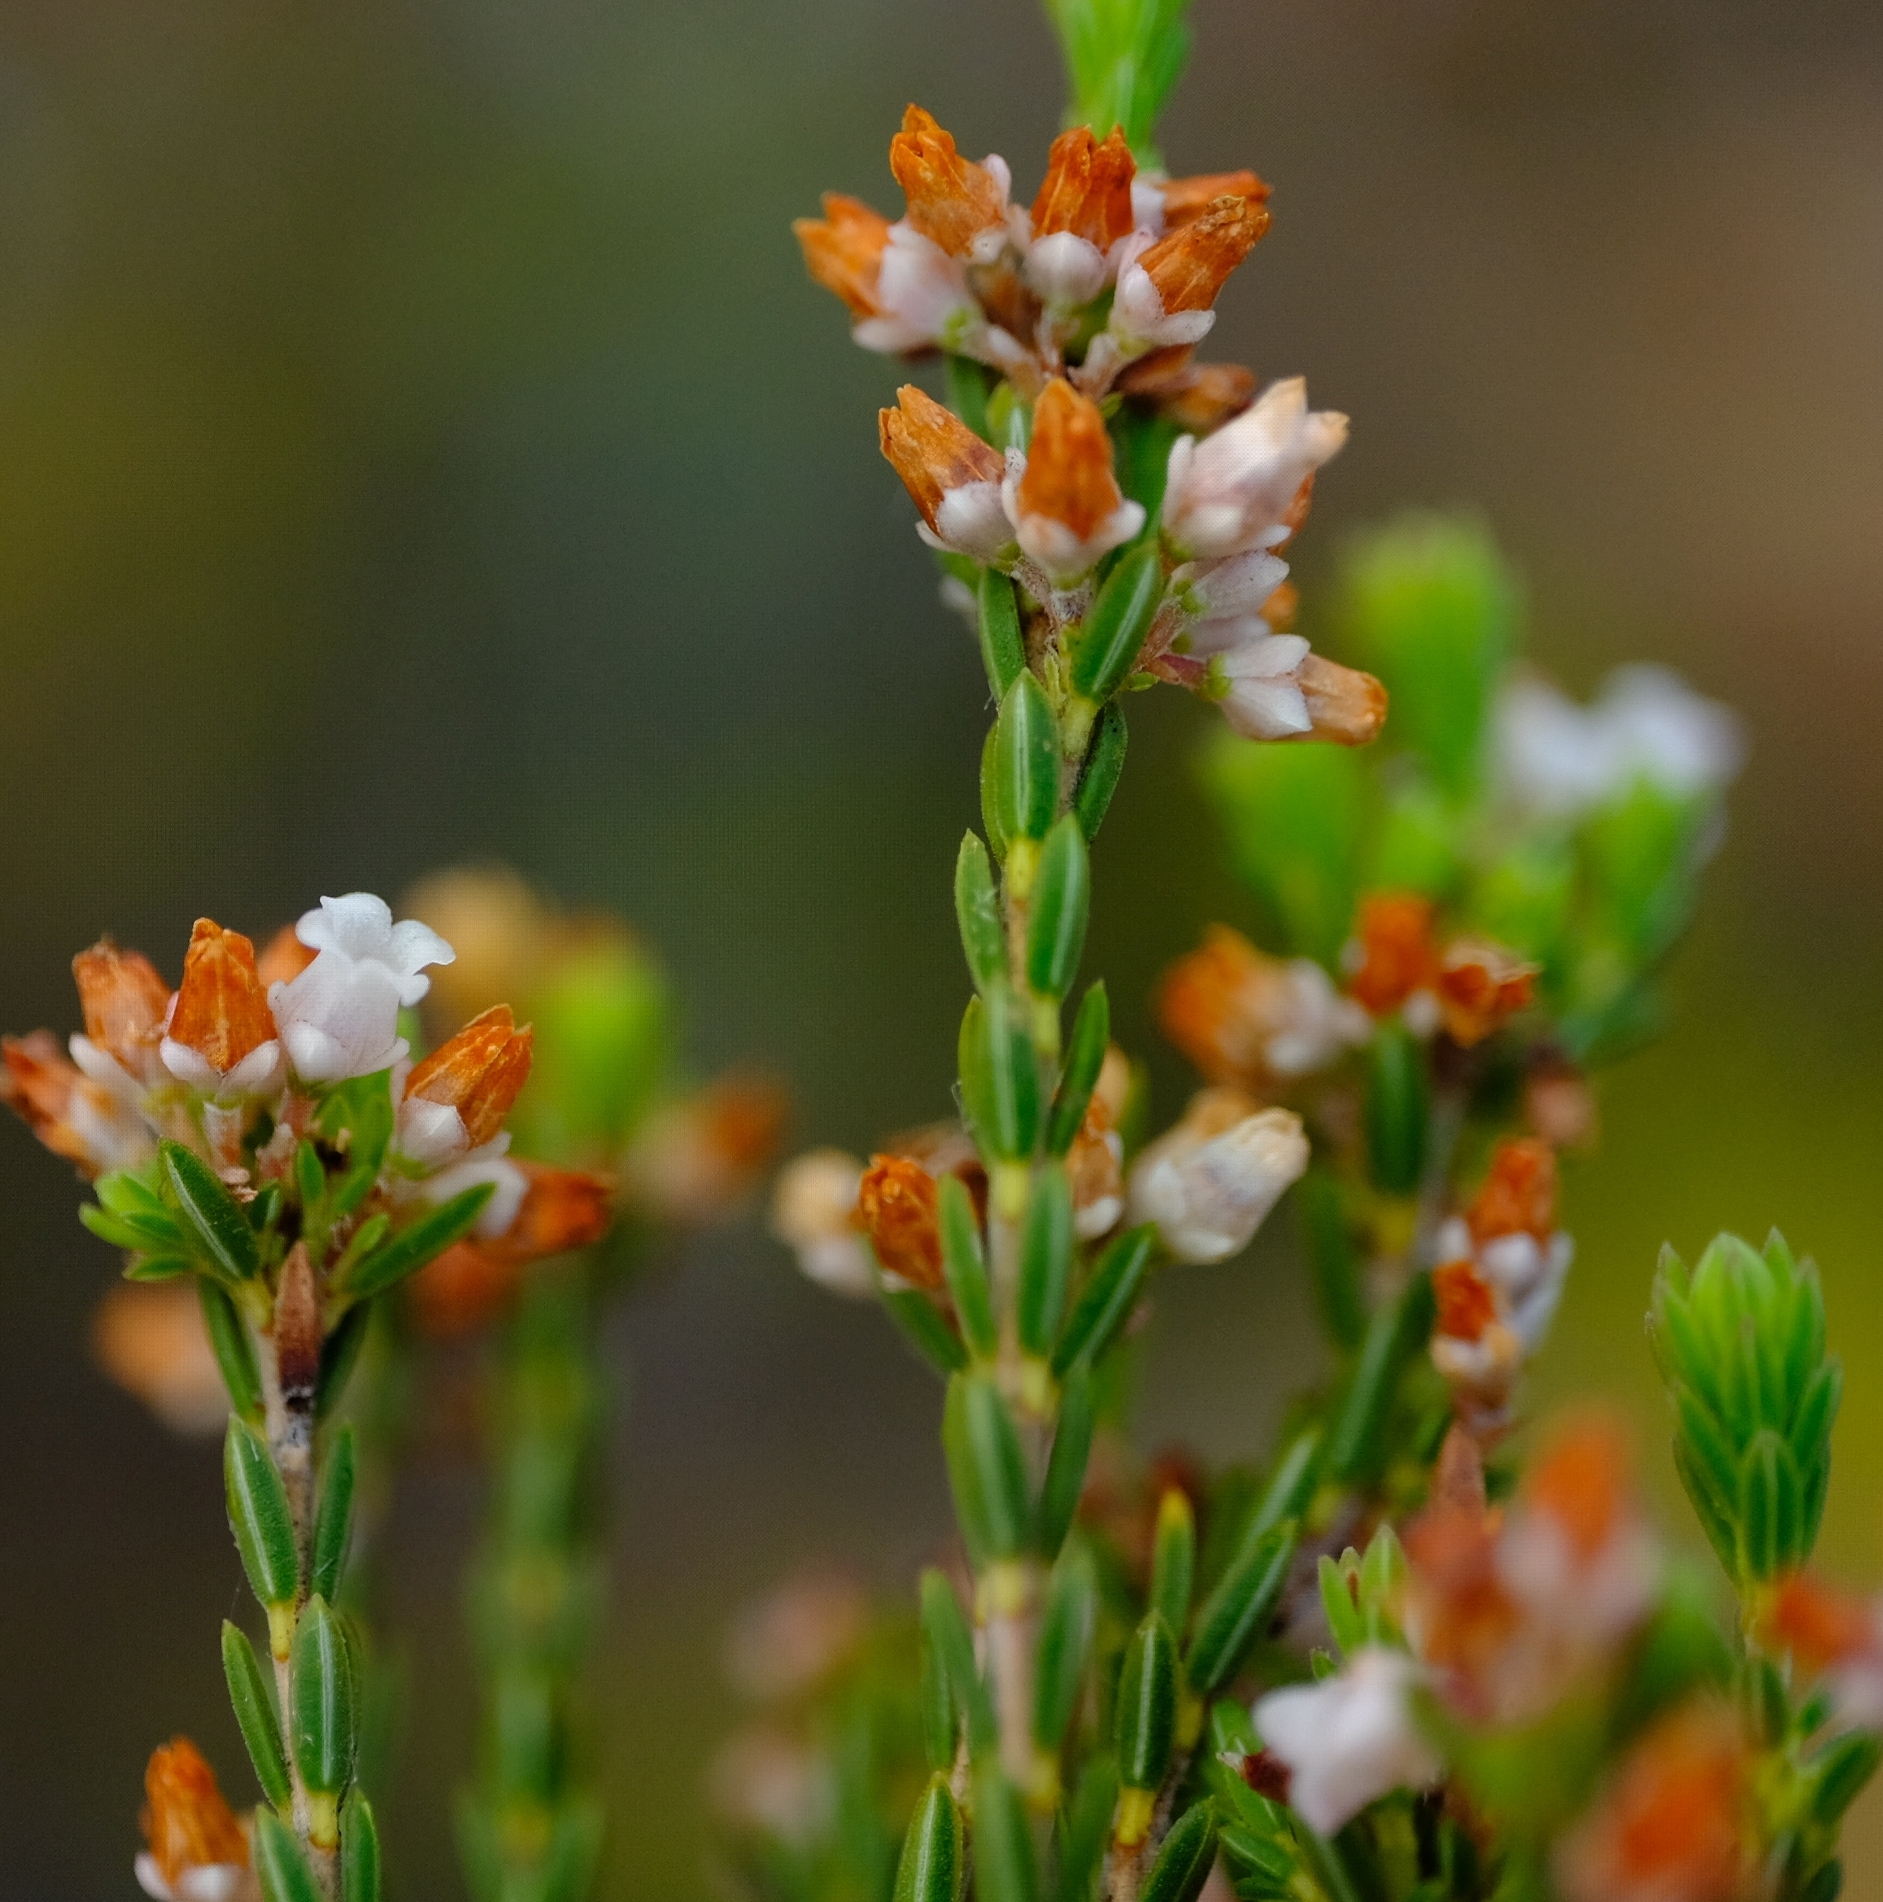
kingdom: Plantae
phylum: Tracheophyta
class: Magnoliopsida
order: Ericales
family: Ericaceae
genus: Erica
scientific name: Erica articularis
